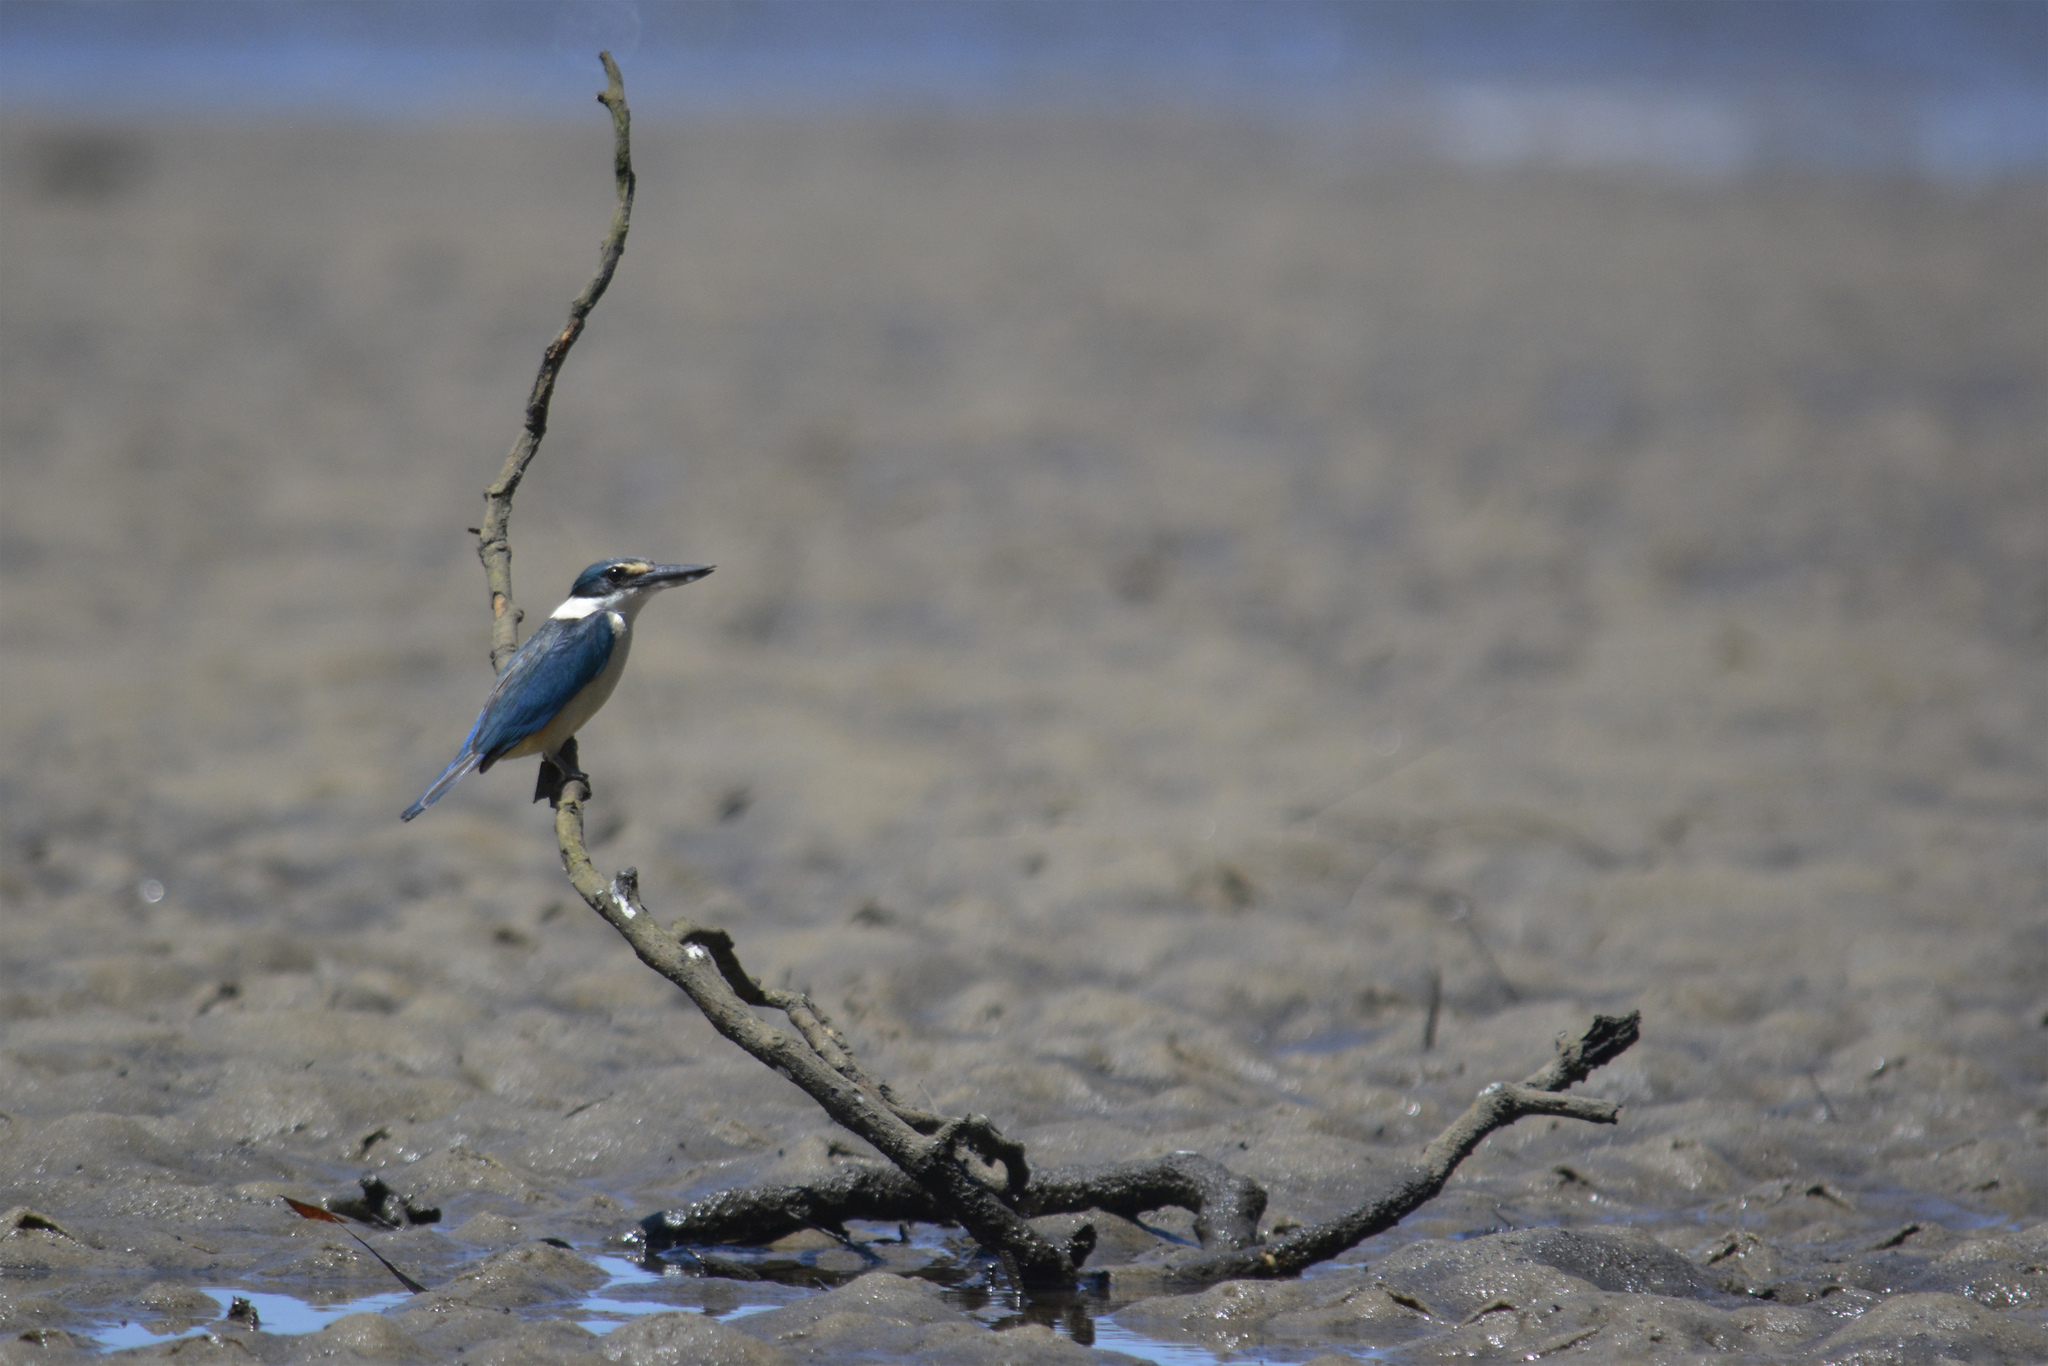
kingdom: Animalia
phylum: Chordata
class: Aves
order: Coraciiformes
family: Alcedinidae
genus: Todiramphus
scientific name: Todiramphus sanctus
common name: Sacred kingfisher
